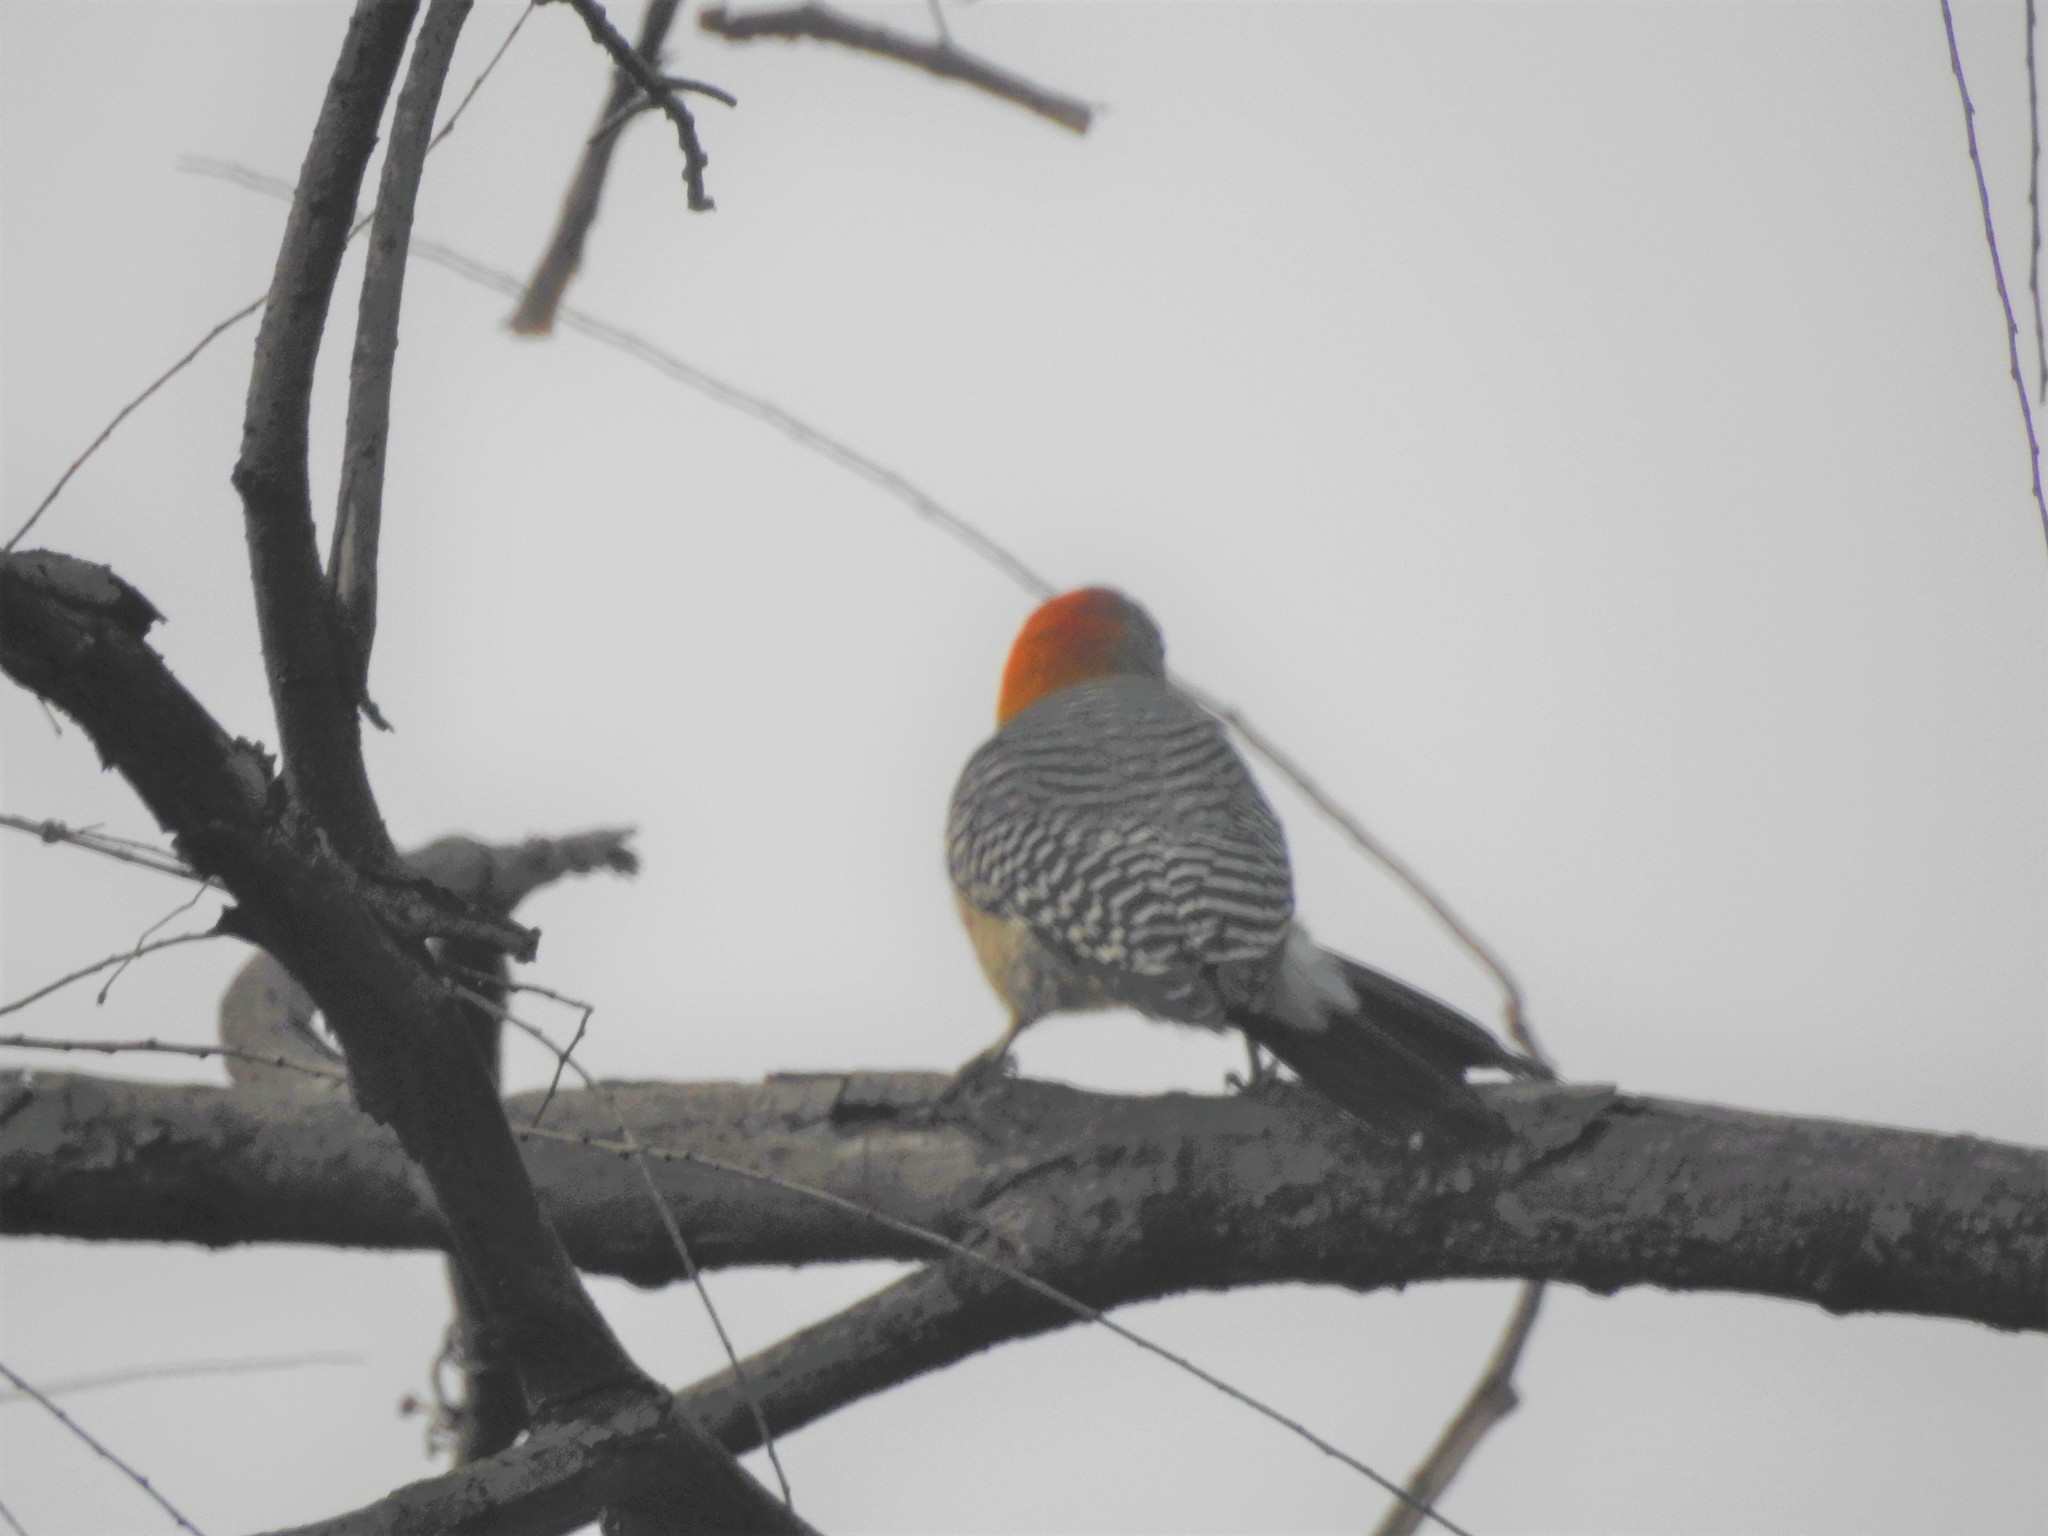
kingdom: Animalia
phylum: Chordata
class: Aves
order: Piciformes
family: Picidae
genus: Melanerpes
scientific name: Melanerpes aurifrons
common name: Golden-fronted woodpecker
